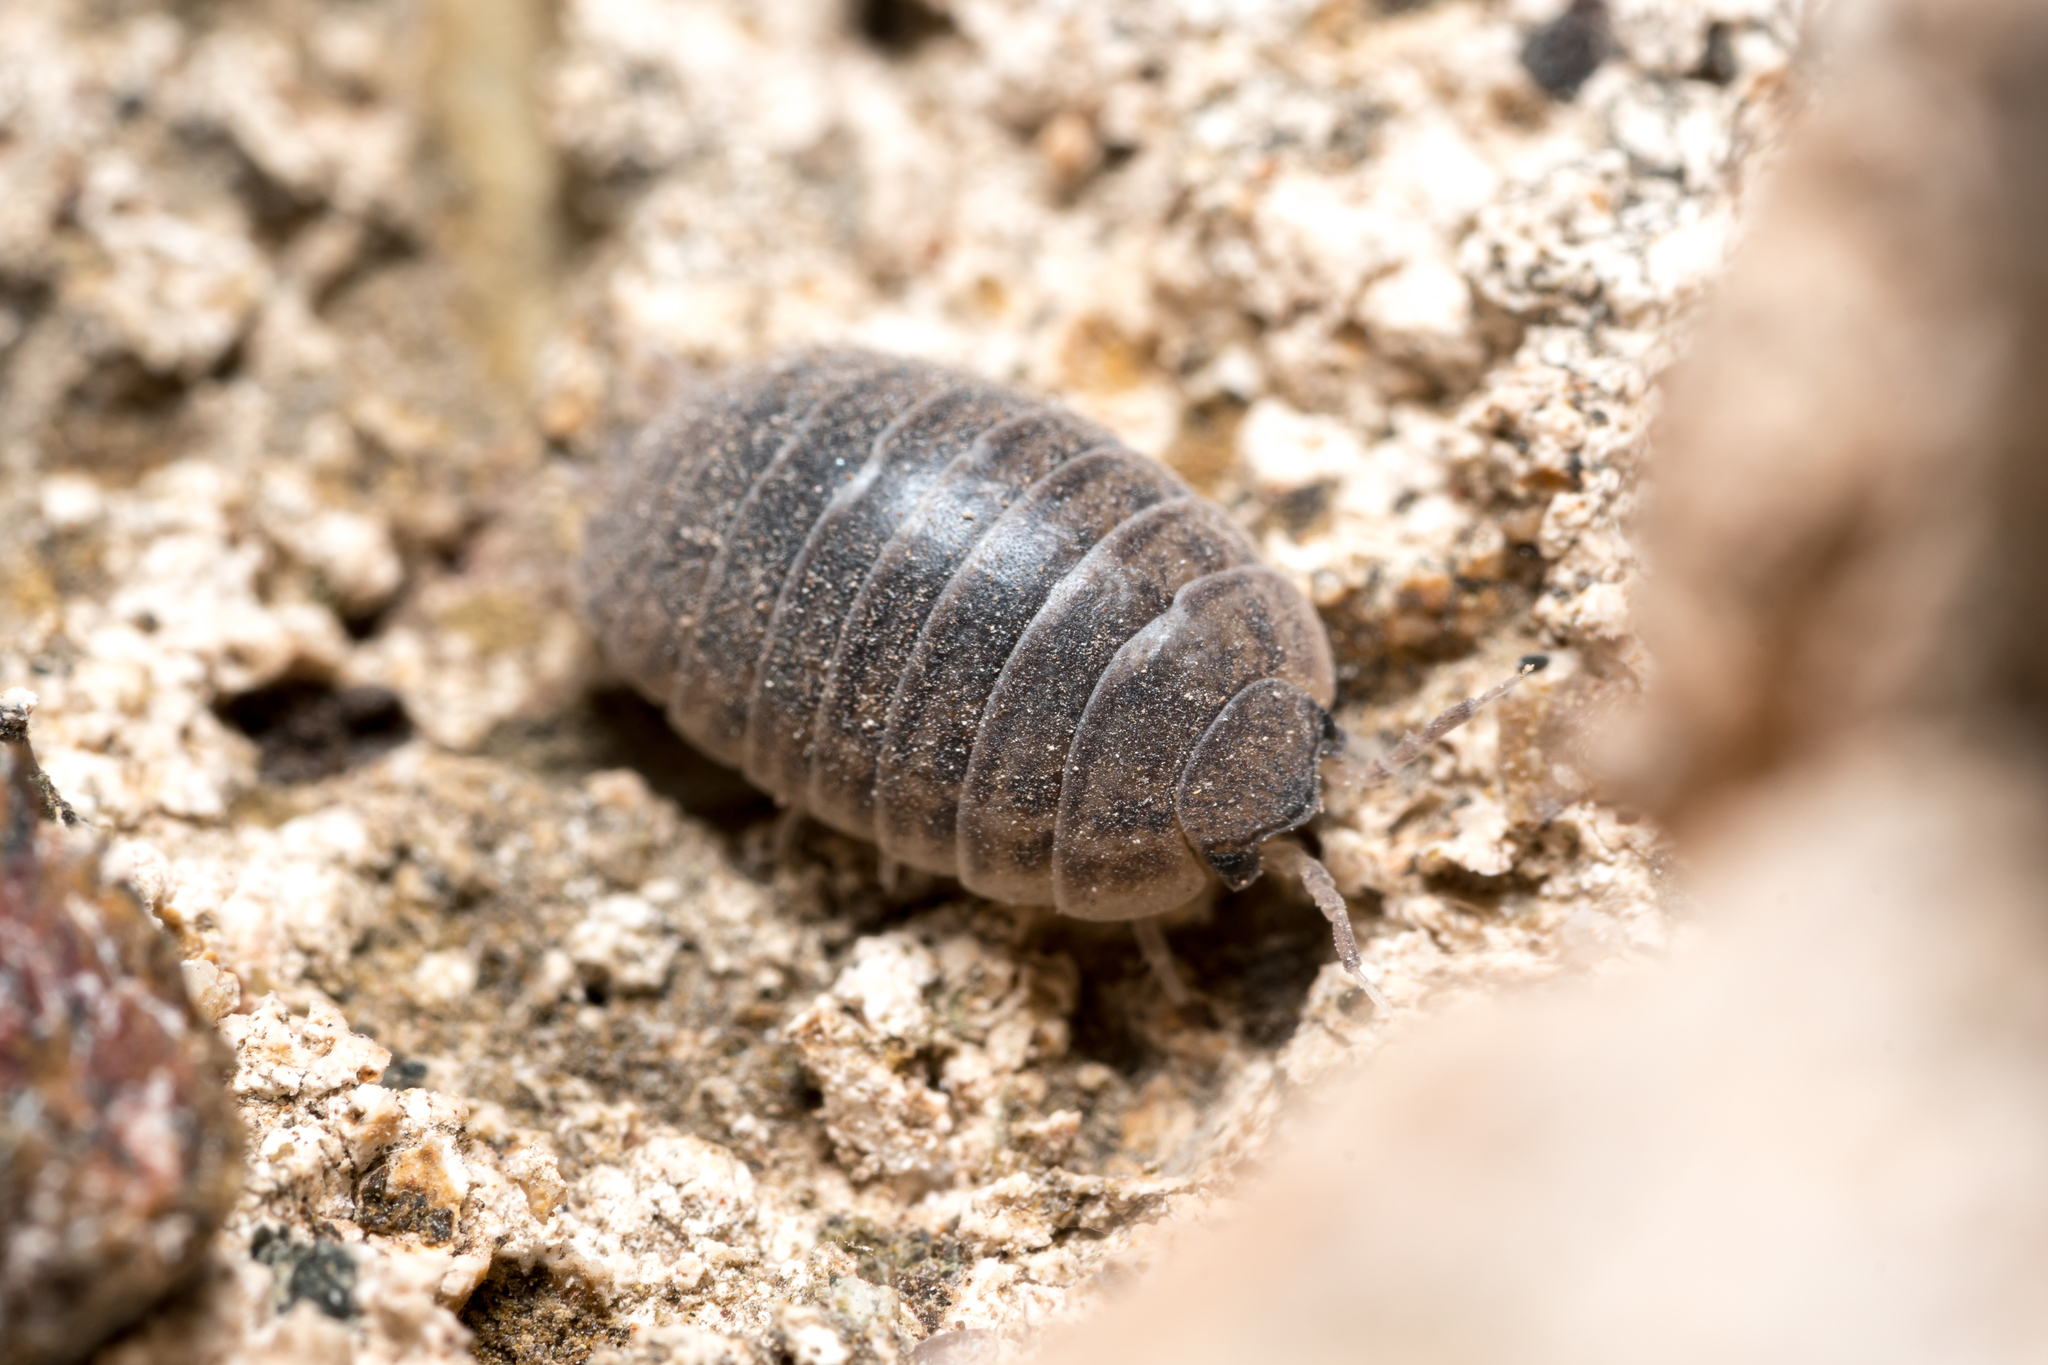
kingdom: Animalia
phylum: Arthropoda
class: Malacostraca
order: Isopoda
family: Porcellionidae
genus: Leptotrichus
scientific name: Leptotrichus kosswigi
